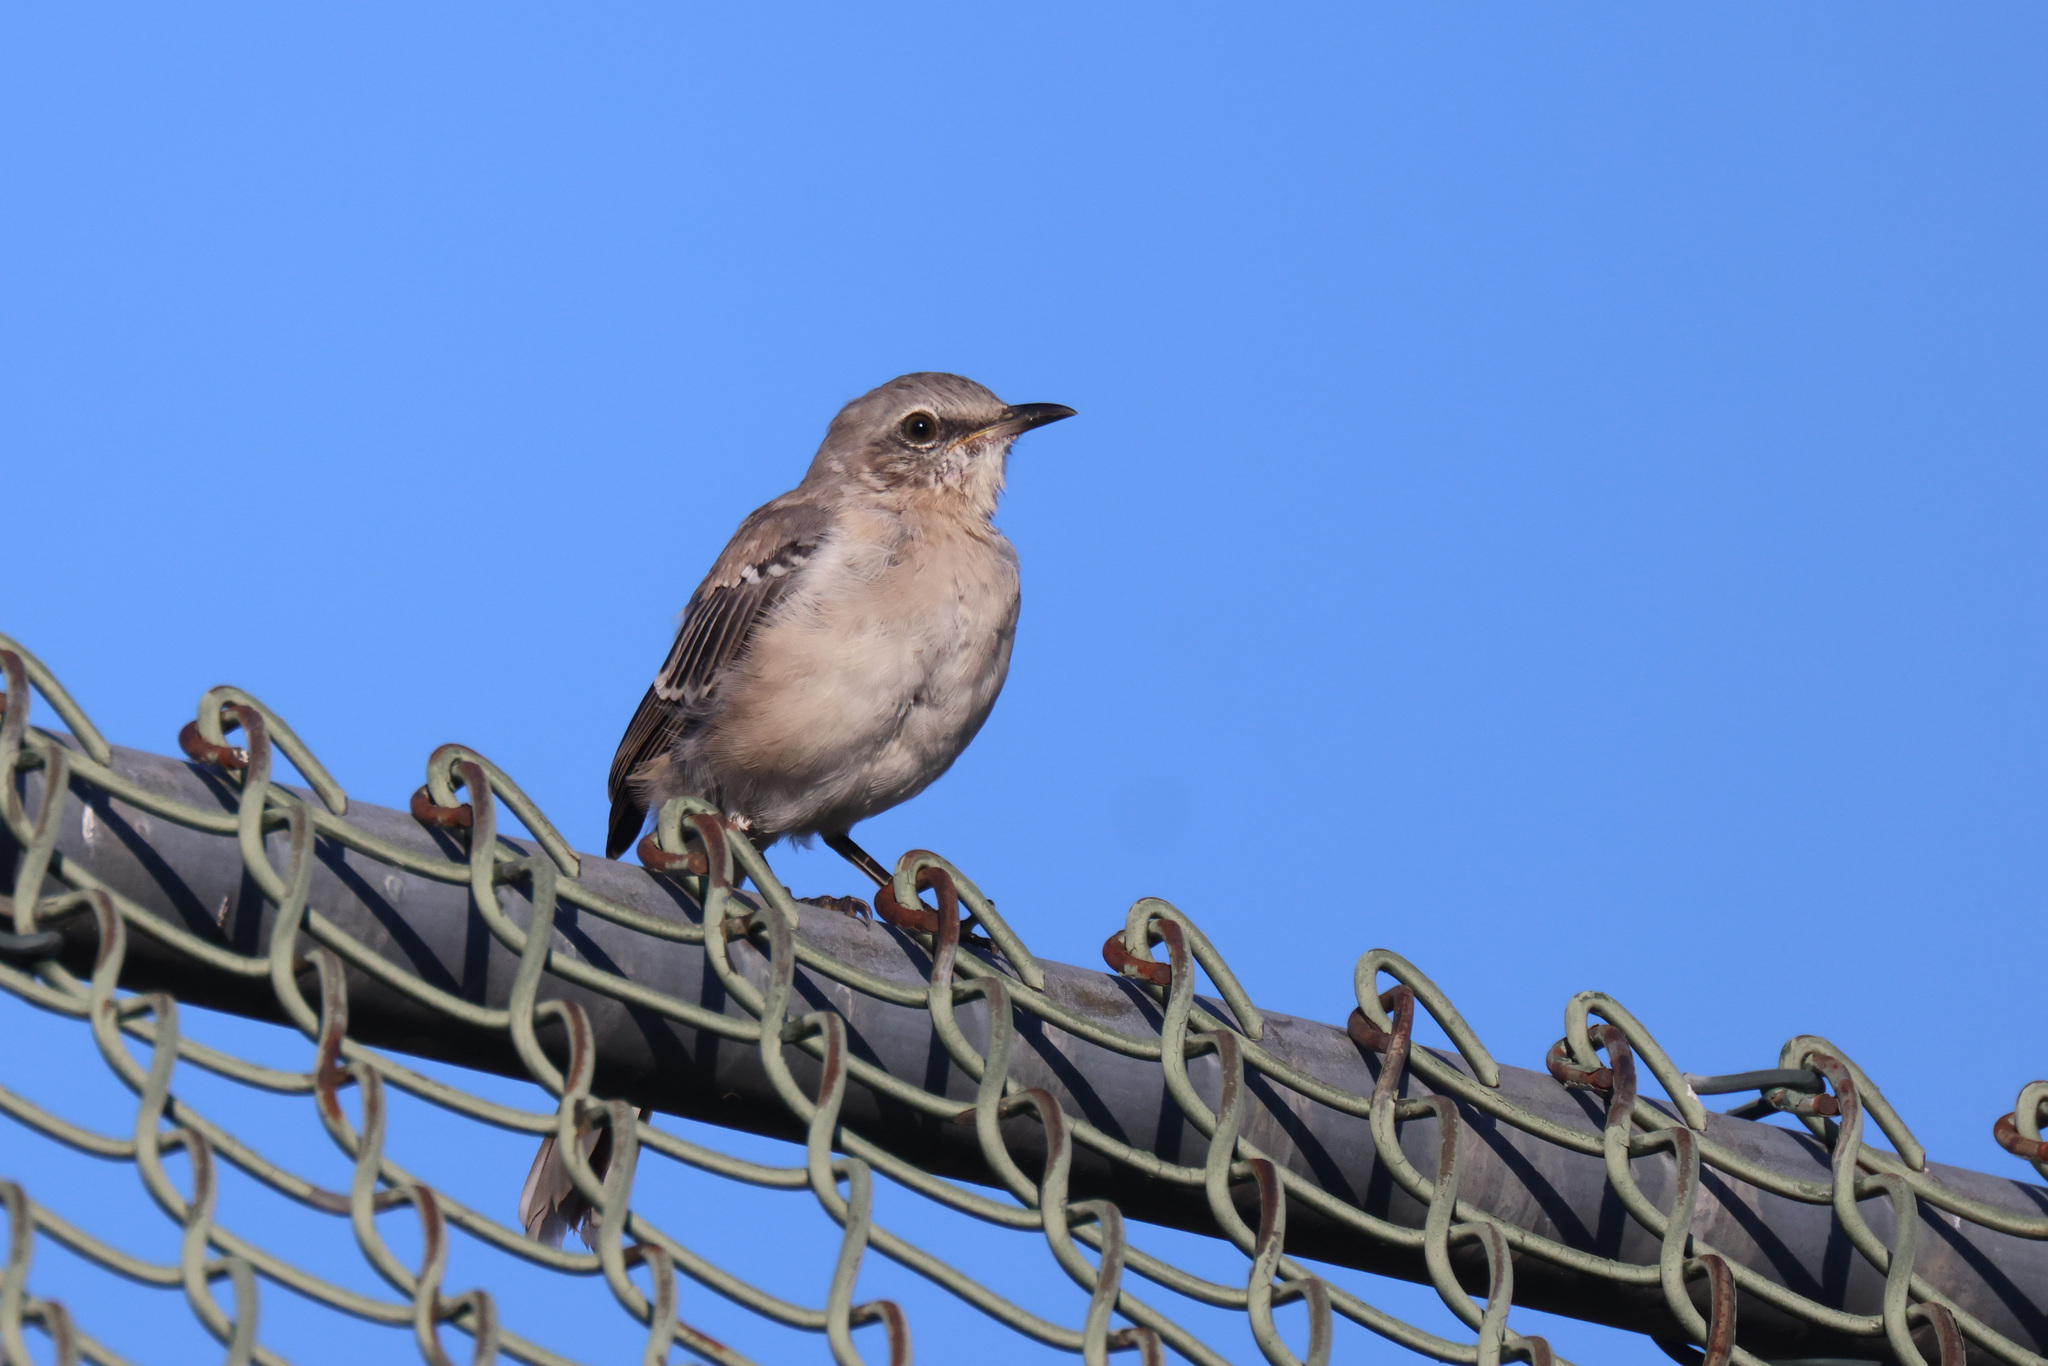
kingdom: Animalia
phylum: Chordata
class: Aves
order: Passeriformes
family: Mimidae
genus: Mimus
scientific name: Mimus polyglottos
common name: Northern mockingbird
